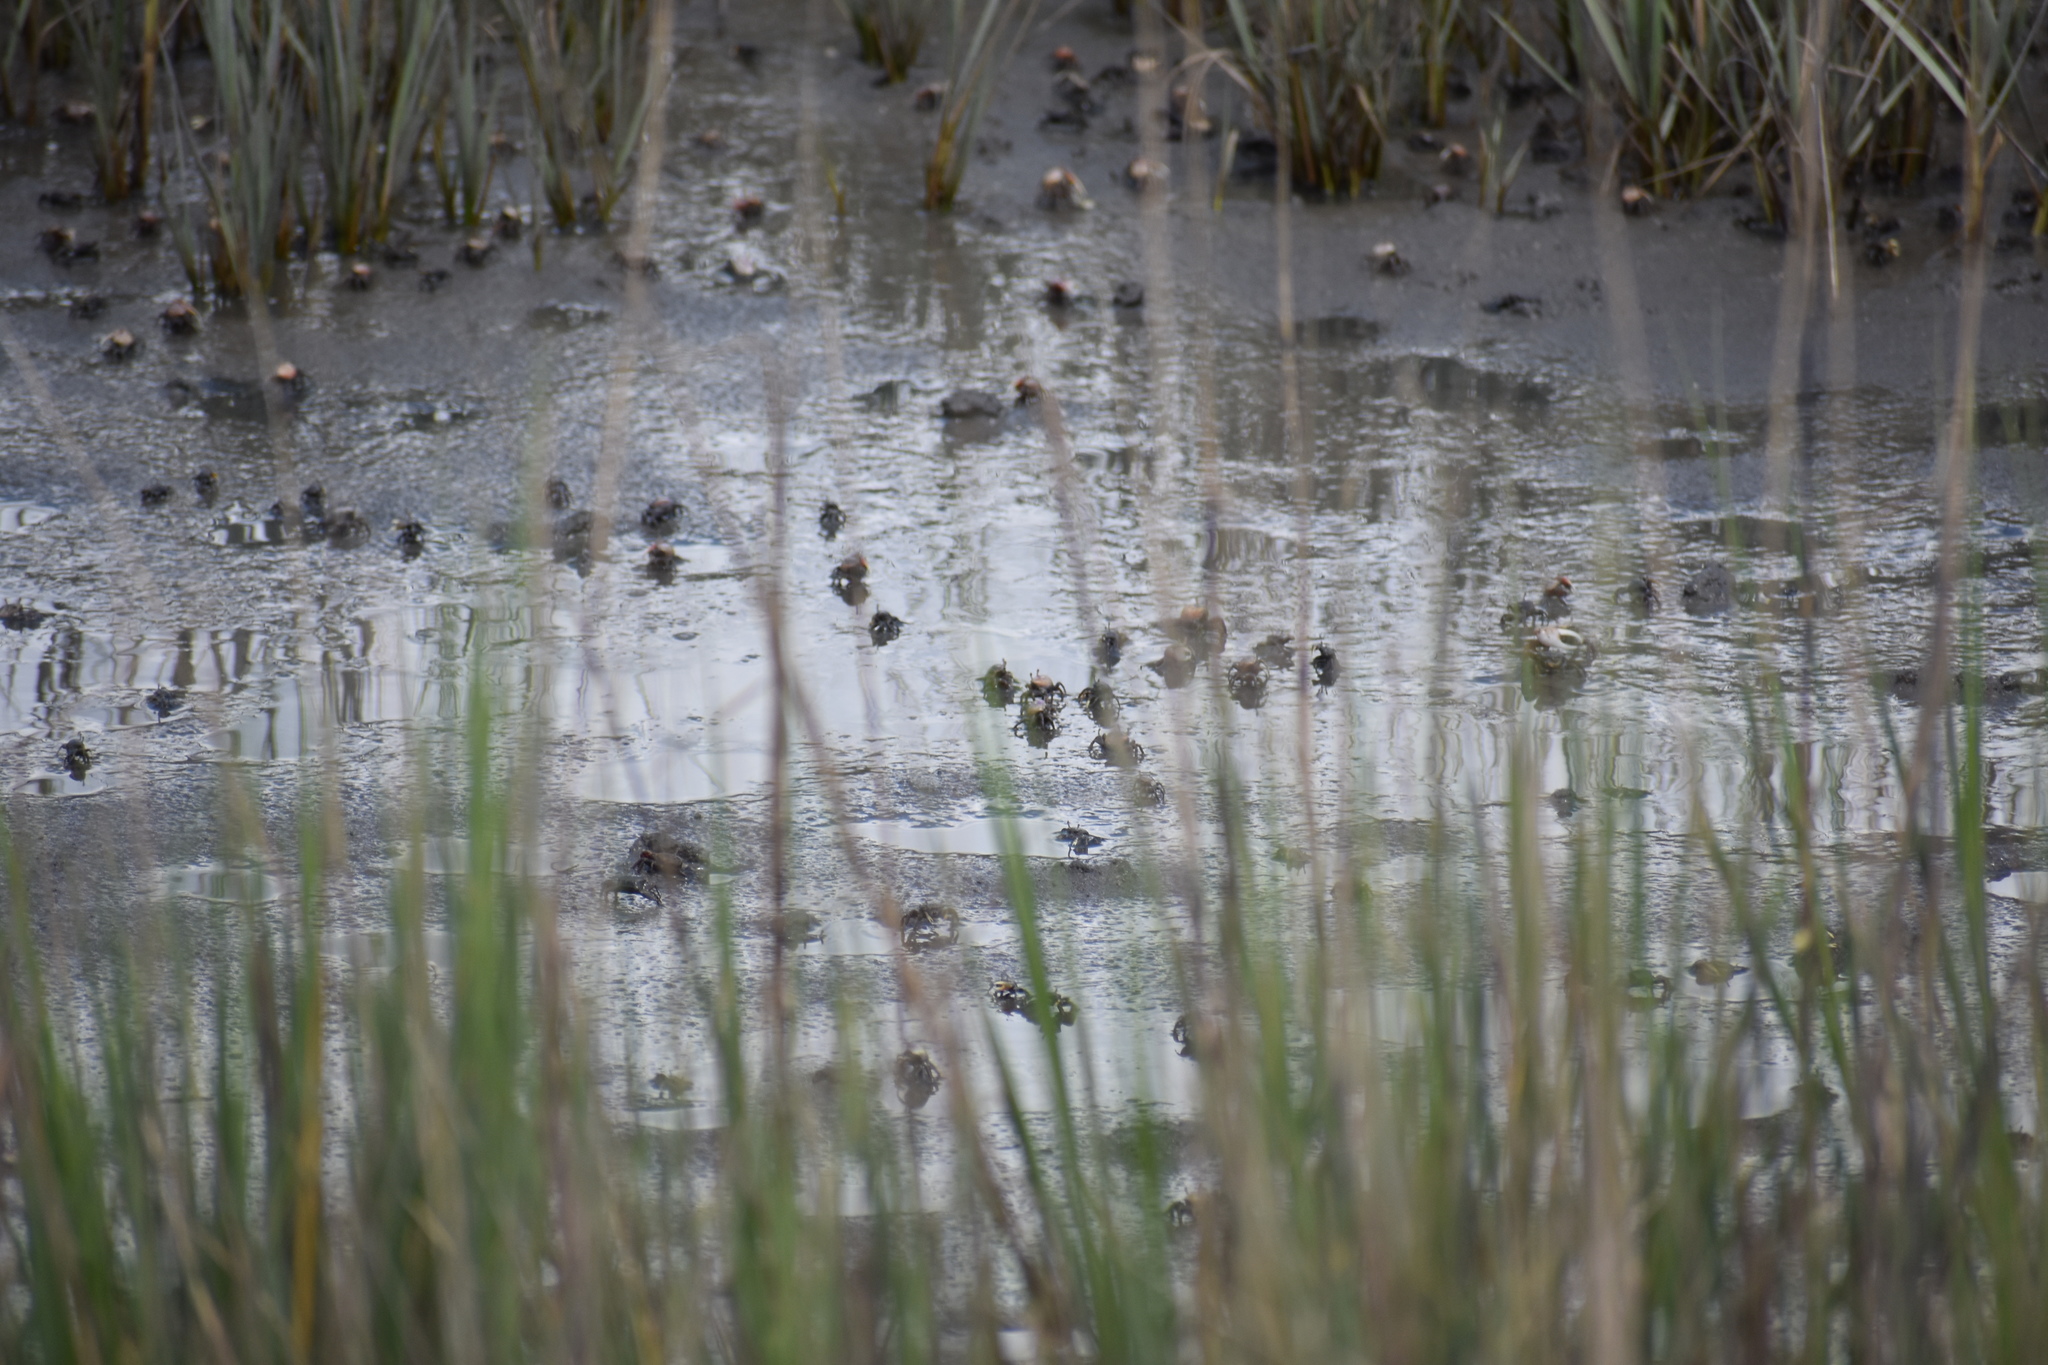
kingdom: Animalia
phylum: Arthropoda
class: Malacostraca
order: Decapoda
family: Ocypodidae
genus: Leptuca
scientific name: Leptuca pugilator
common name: Atlantic sand fiddler crab
